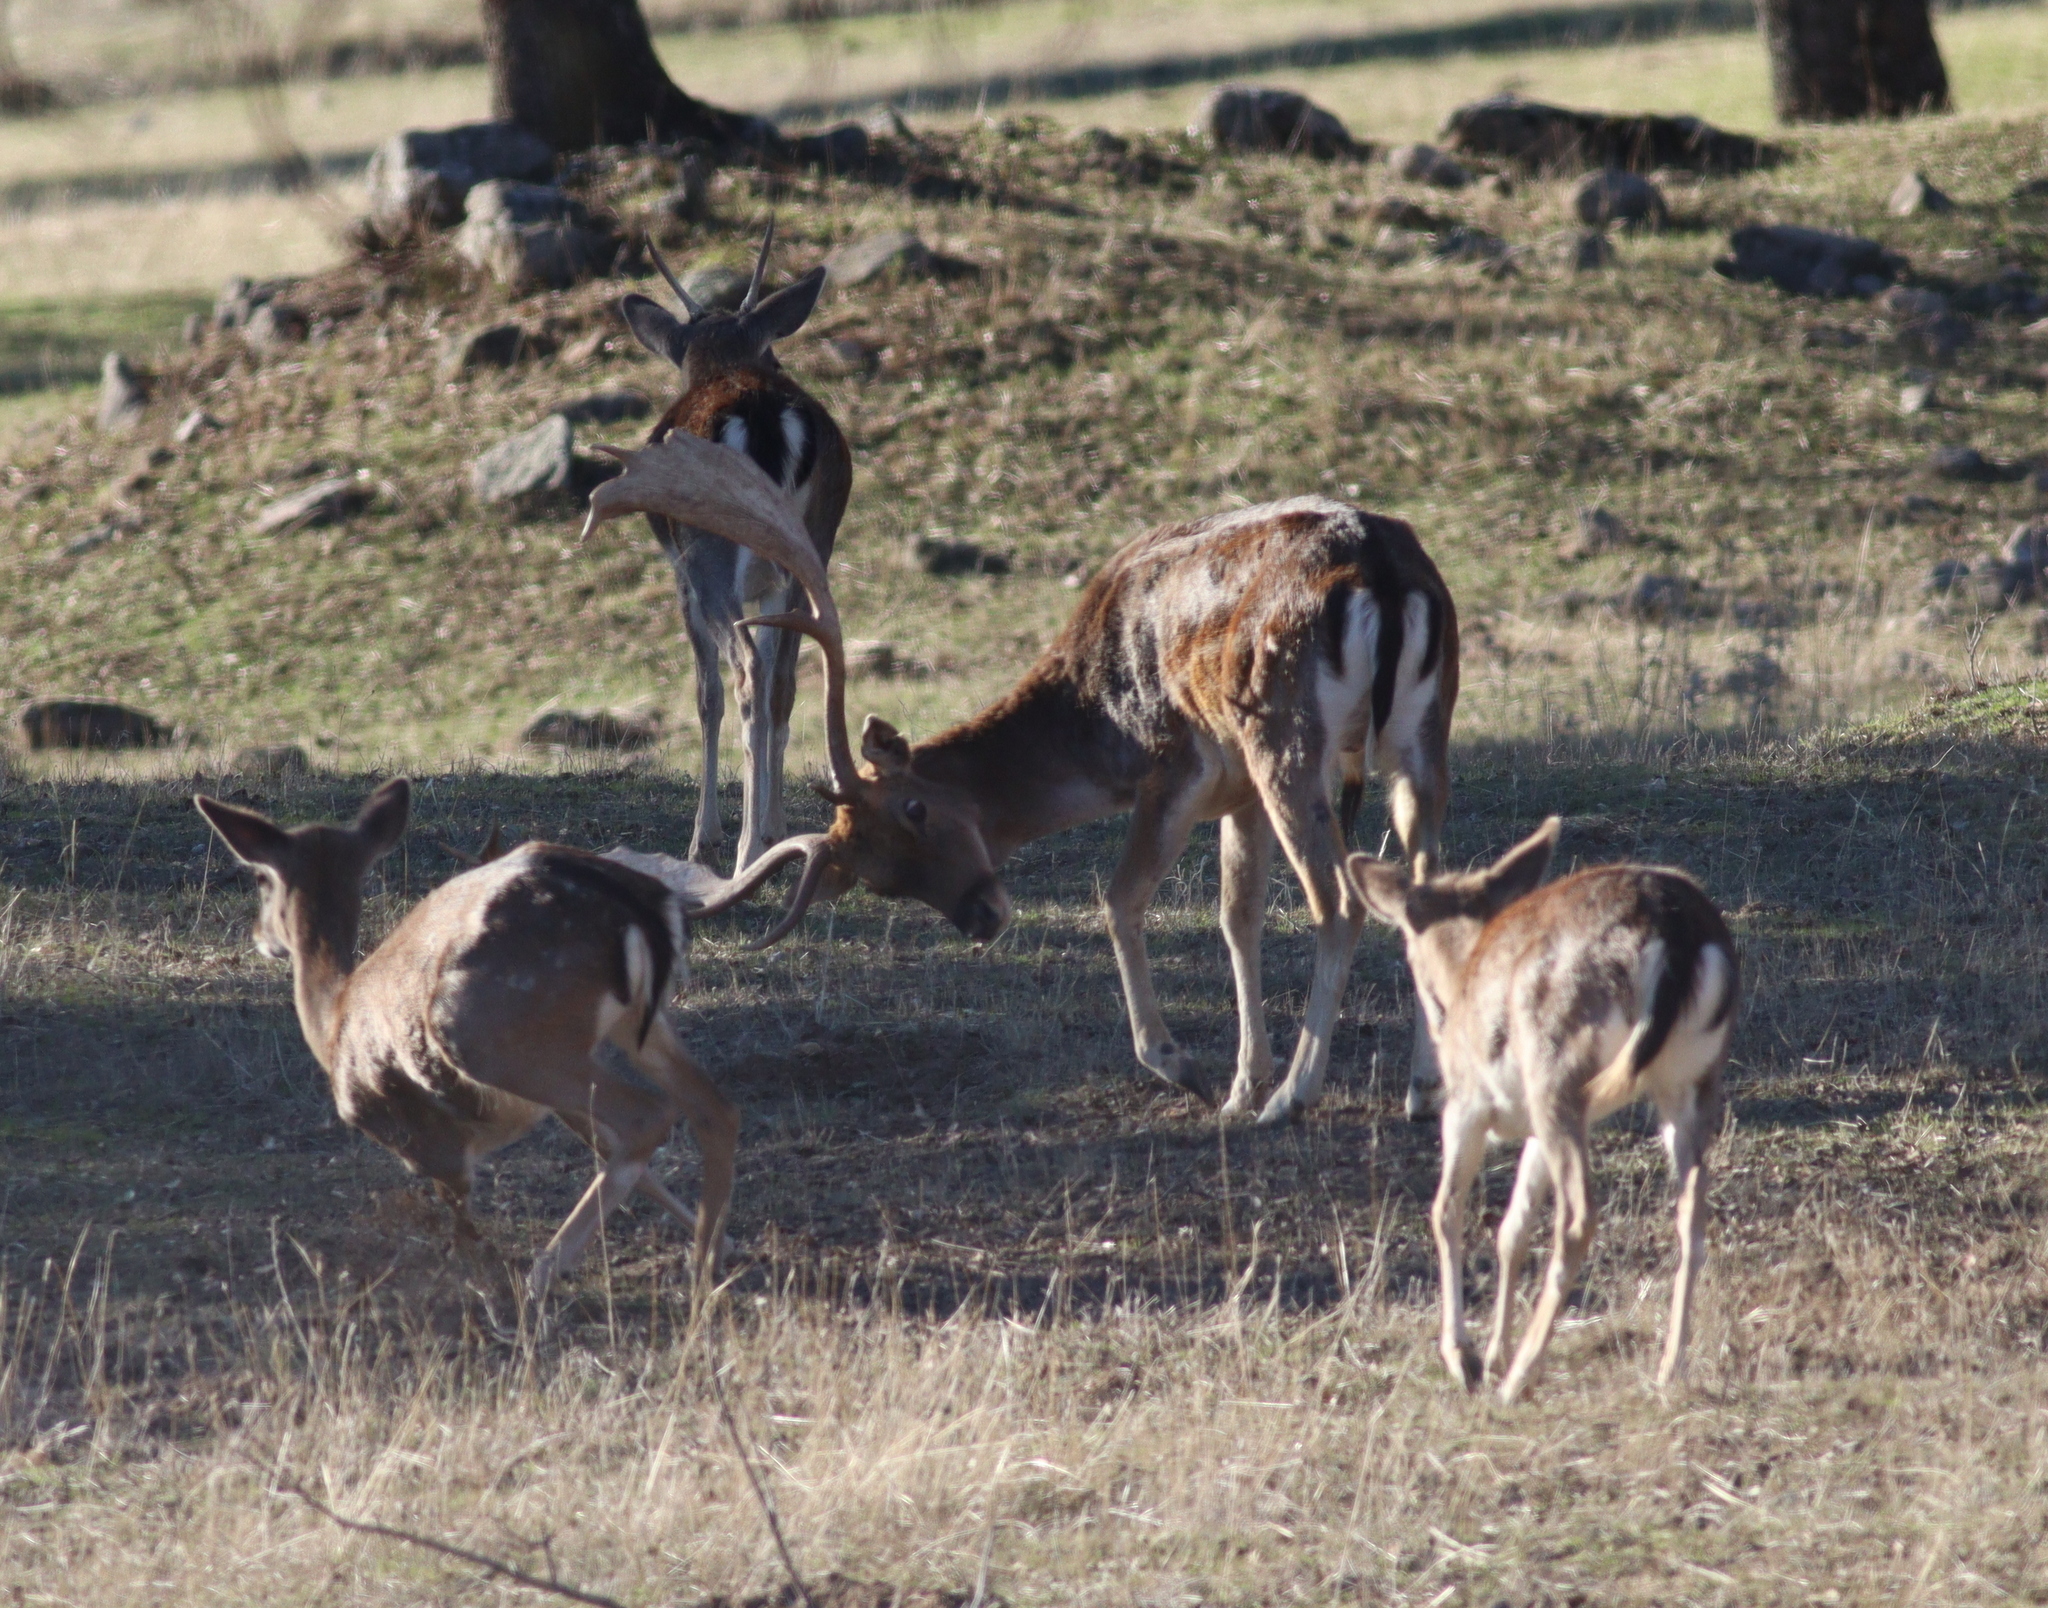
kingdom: Animalia
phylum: Chordata
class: Mammalia
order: Artiodactyla
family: Cervidae
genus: Dama
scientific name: Dama dama
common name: Fallow deer
